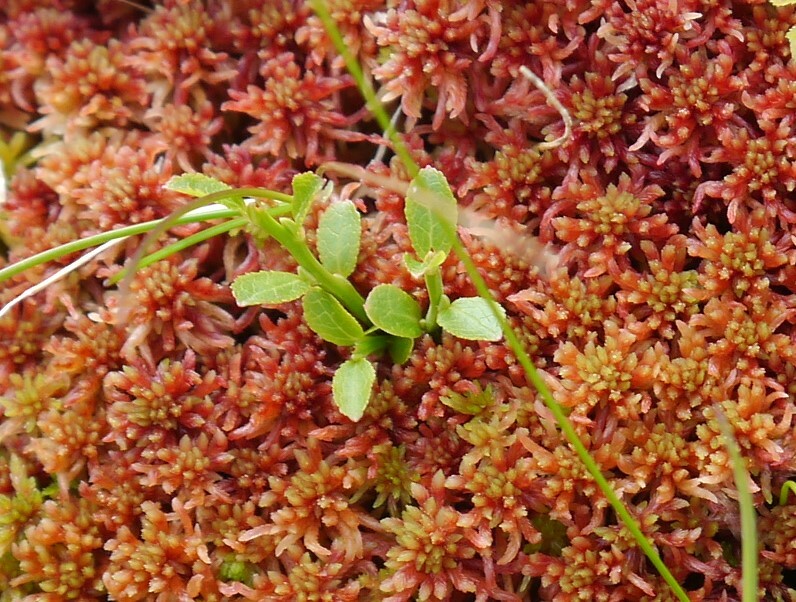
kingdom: Plantae
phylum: Tracheophyta
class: Magnoliopsida
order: Ericales
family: Ericaceae
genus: Vaccinium
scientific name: Vaccinium myrtillus
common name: Bilberry
